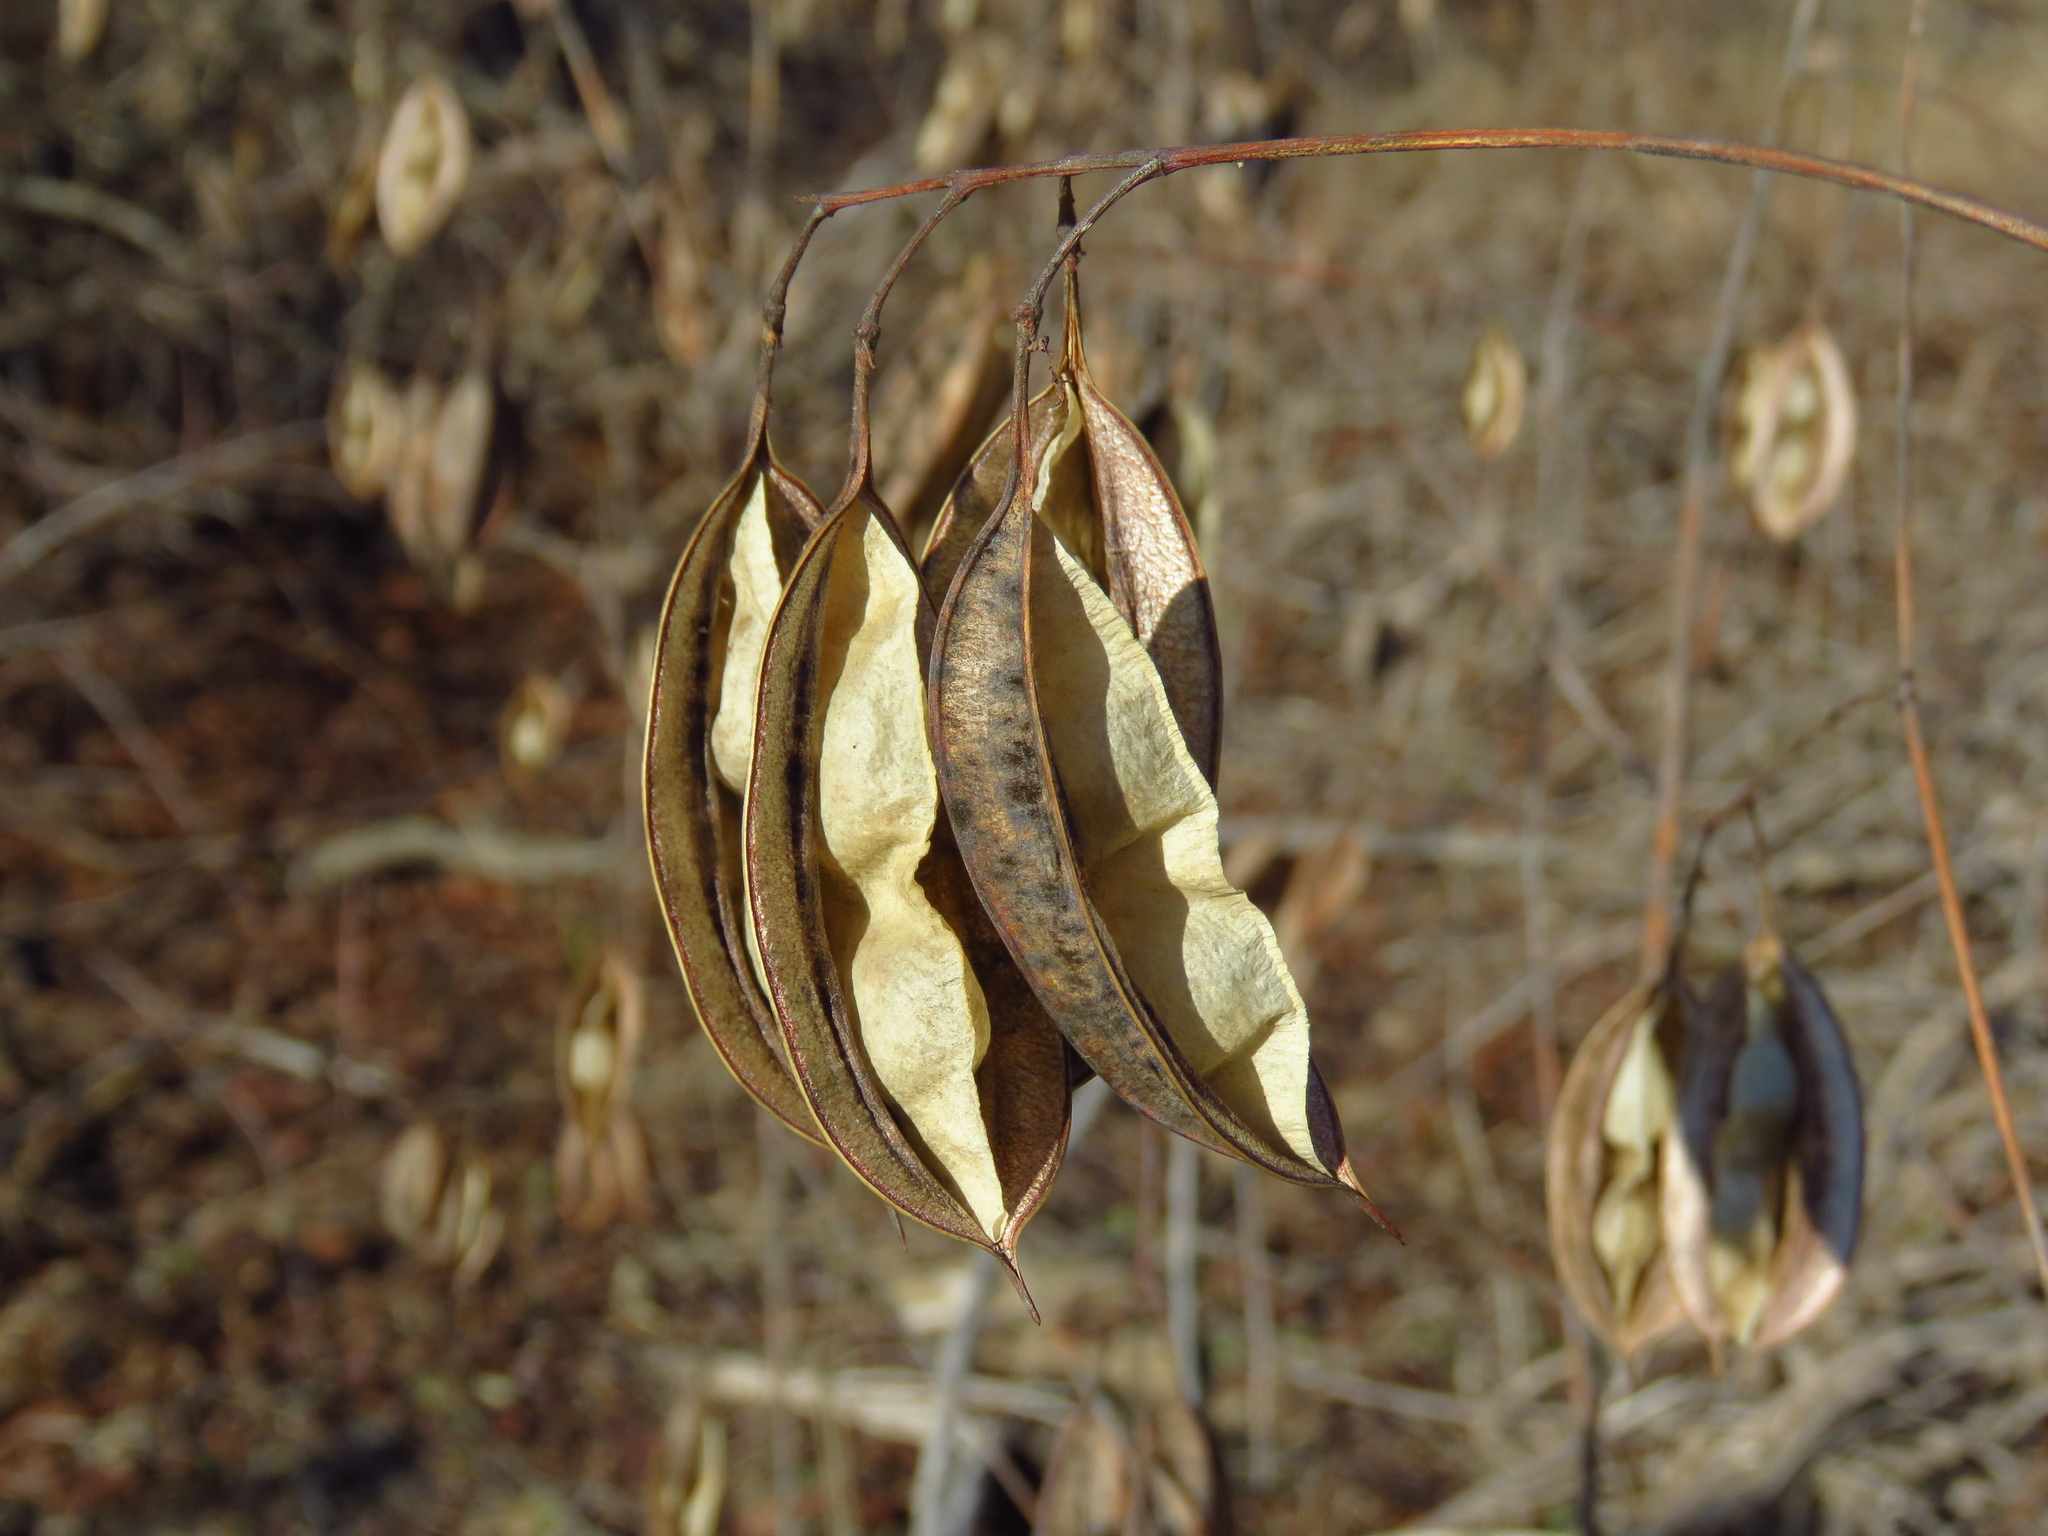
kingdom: Plantae
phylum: Tracheophyta
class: Magnoliopsida
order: Fabales
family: Fabaceae
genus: Sesbania
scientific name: Sesbania vesicaria
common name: Bagpod
